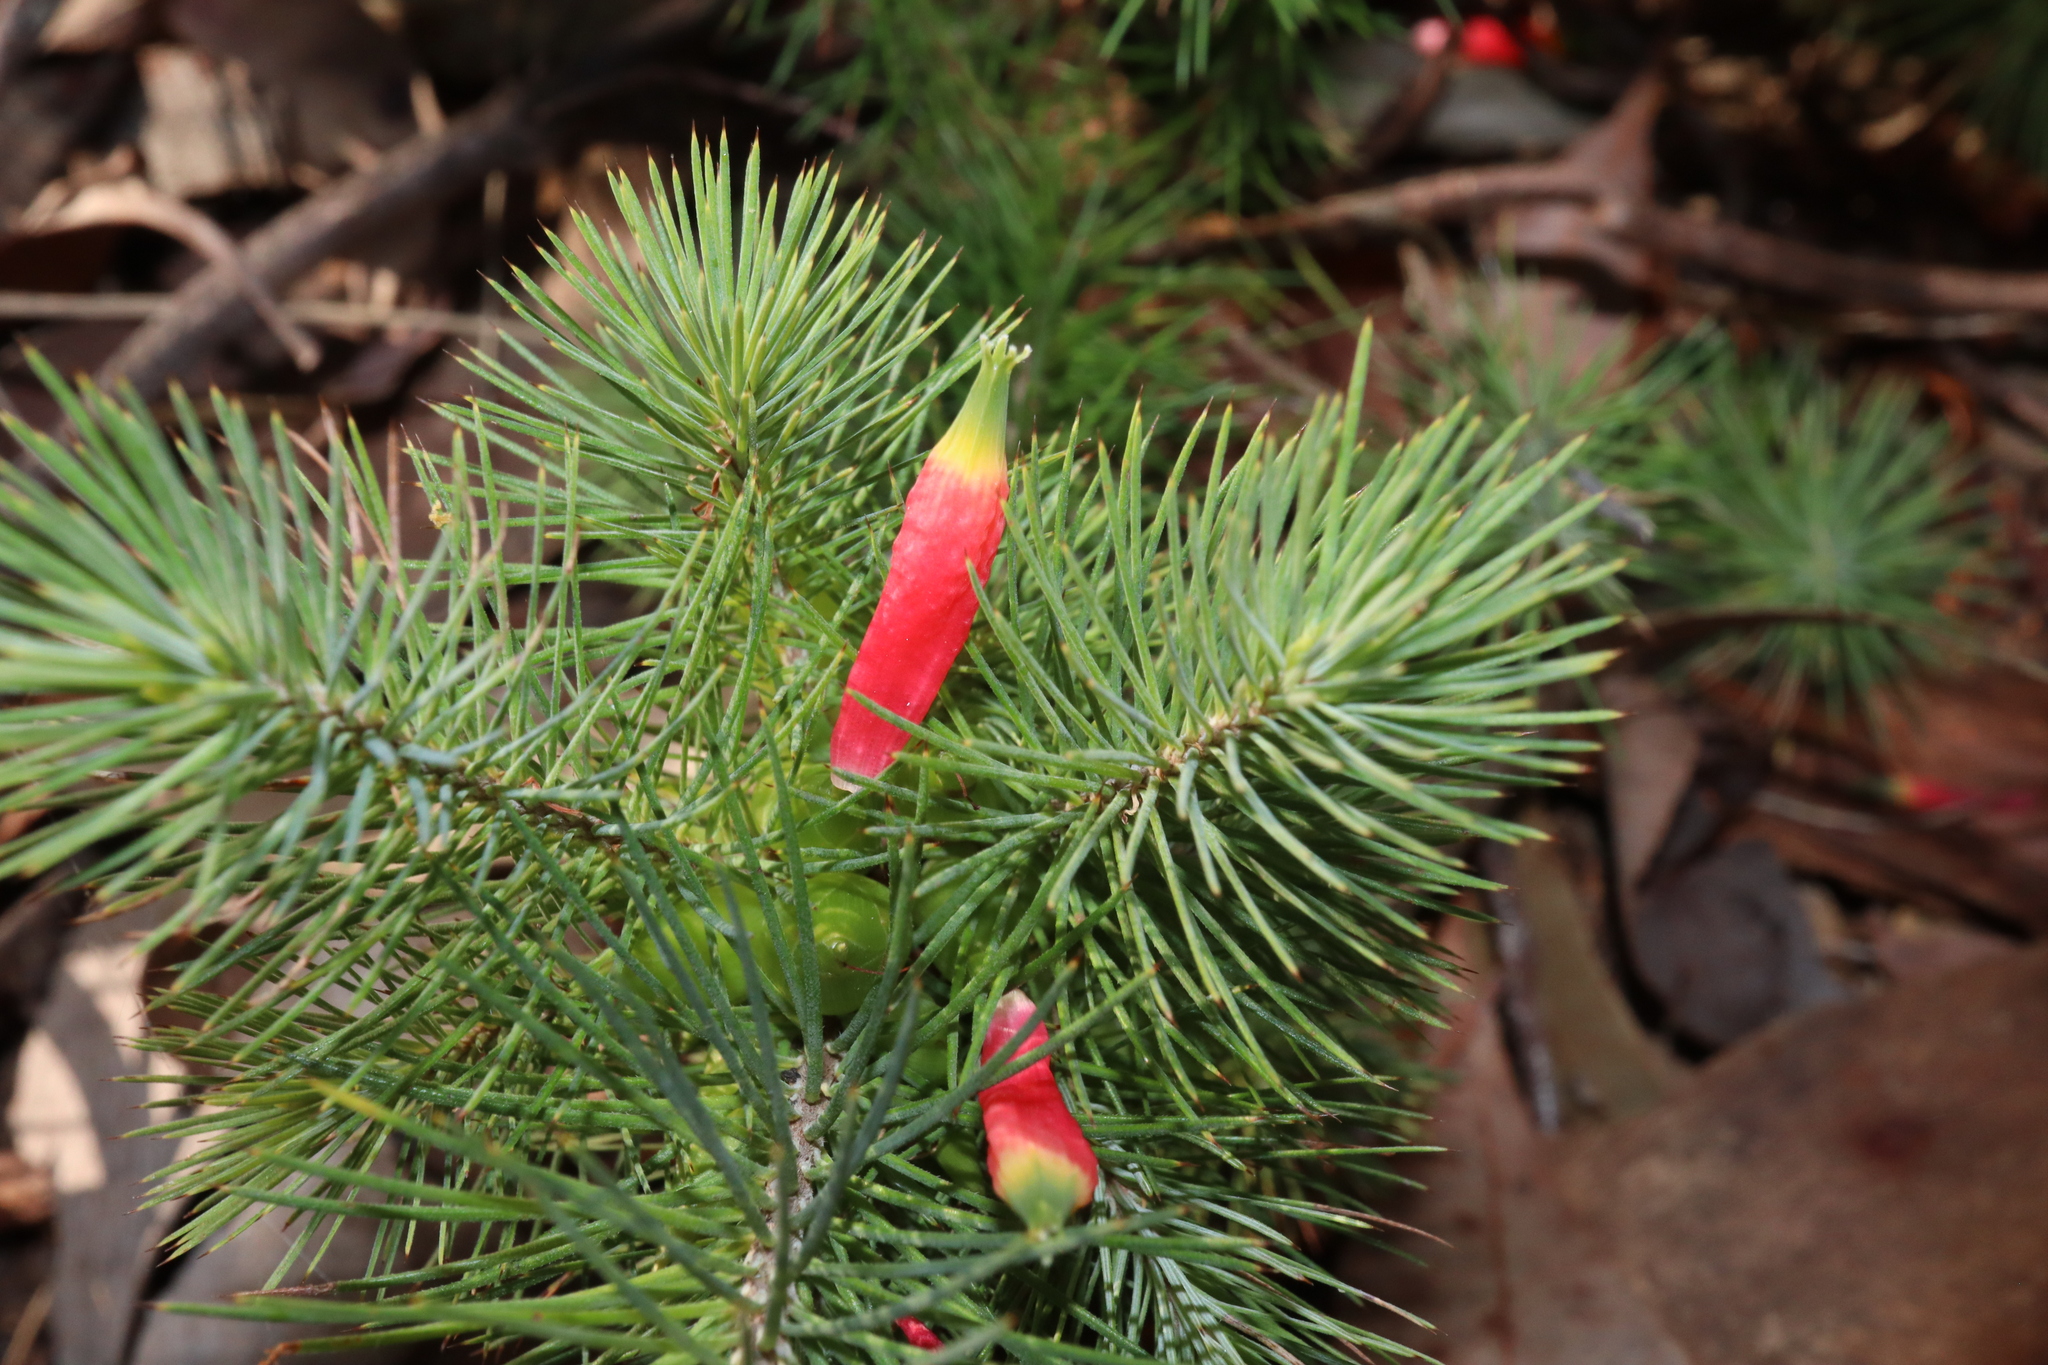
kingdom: Plantae
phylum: Tracheophyta
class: Magnoliopsida
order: Ericales
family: Ericaceae
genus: Stenanthera
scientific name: Stenanthera pinifolia
